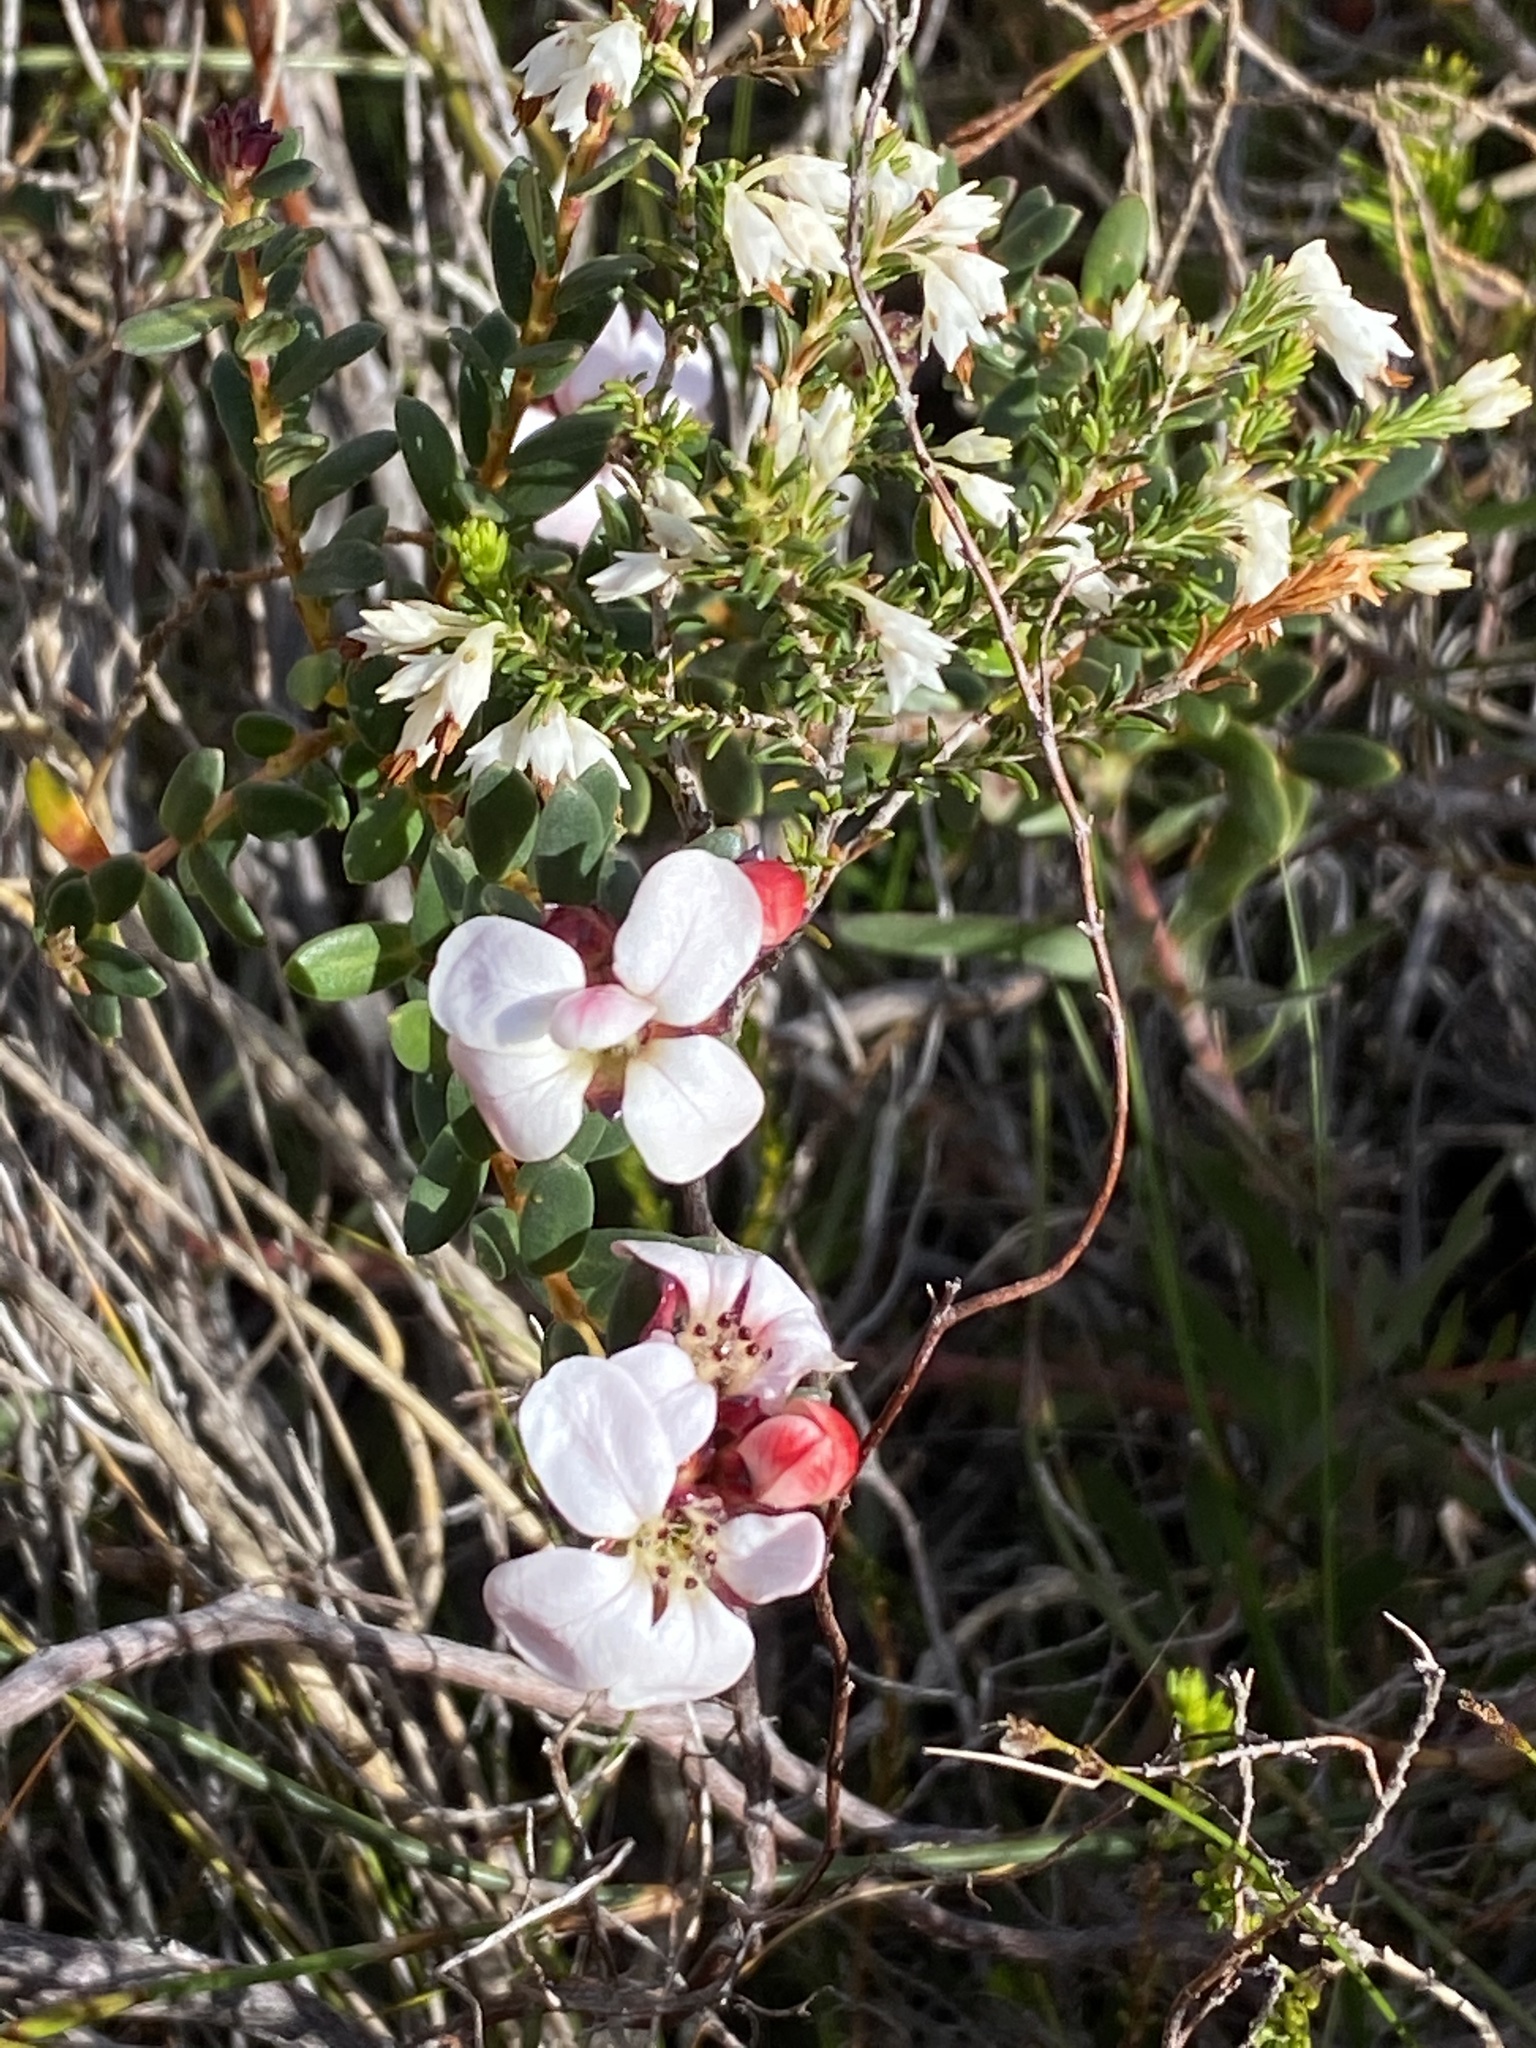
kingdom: Plantae
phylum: Tracheophyta
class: Magnoliopsida
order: Sapindales
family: Rutaceae
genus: Adenandra
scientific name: Adenandra viscida
